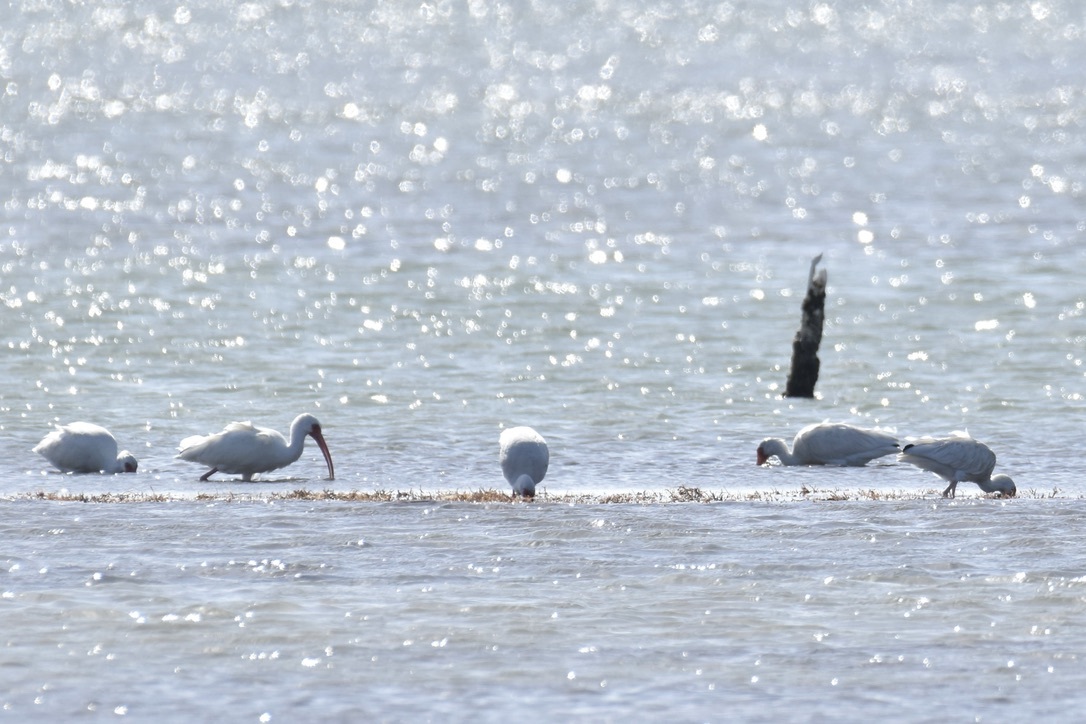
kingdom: Animalia
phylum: Chordata
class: Aves
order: Pelecaniformes
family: Threskiornithidae
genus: Eudocimus
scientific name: Eudocimus albus
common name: White ibis
